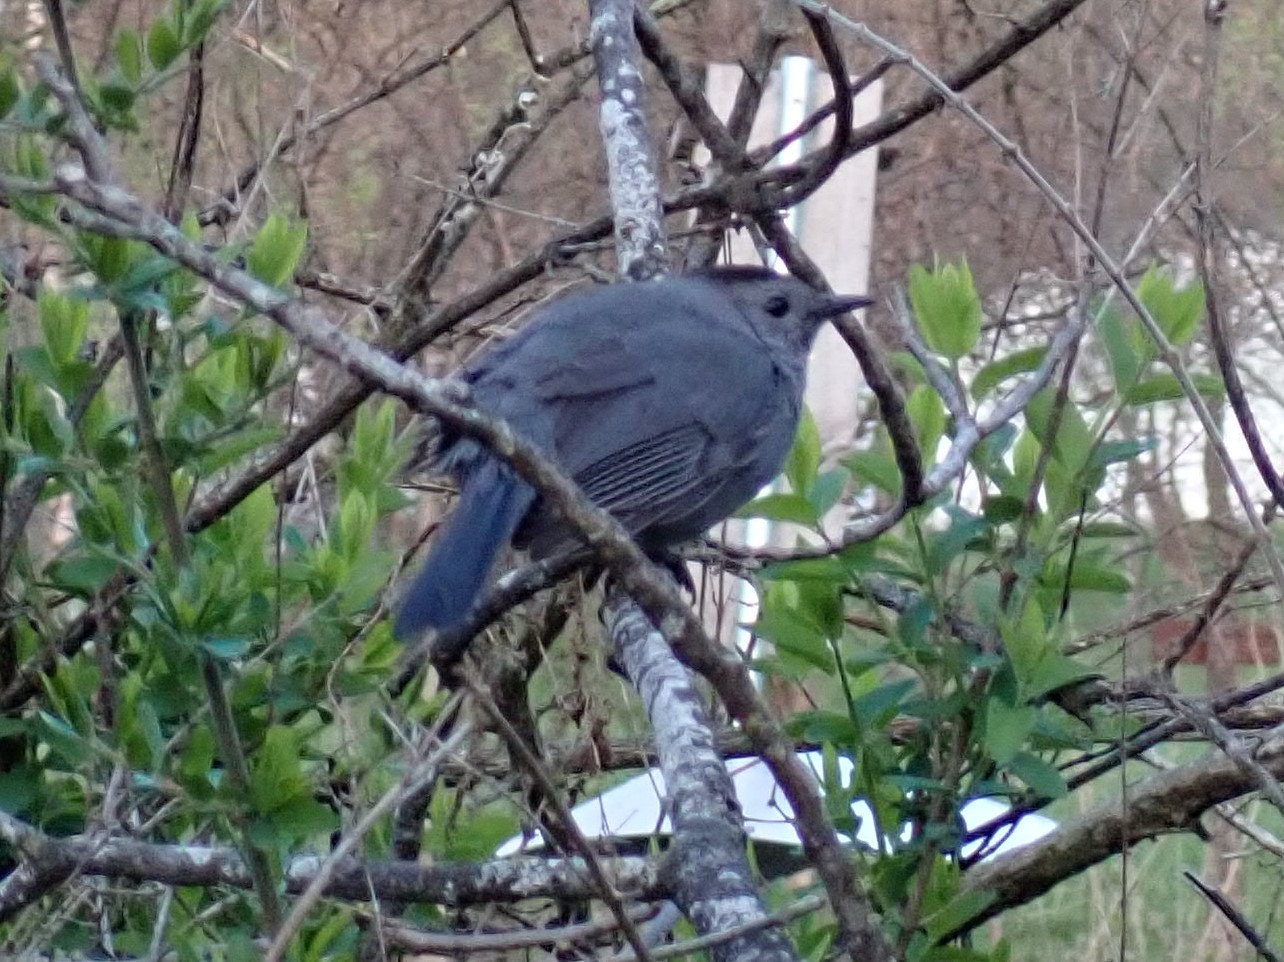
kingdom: Animalia
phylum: Chordata
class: Aves
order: Passeriformes
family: Mimidae
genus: Dumetella
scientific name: Dumetella carolinensis
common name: Gray catbird
